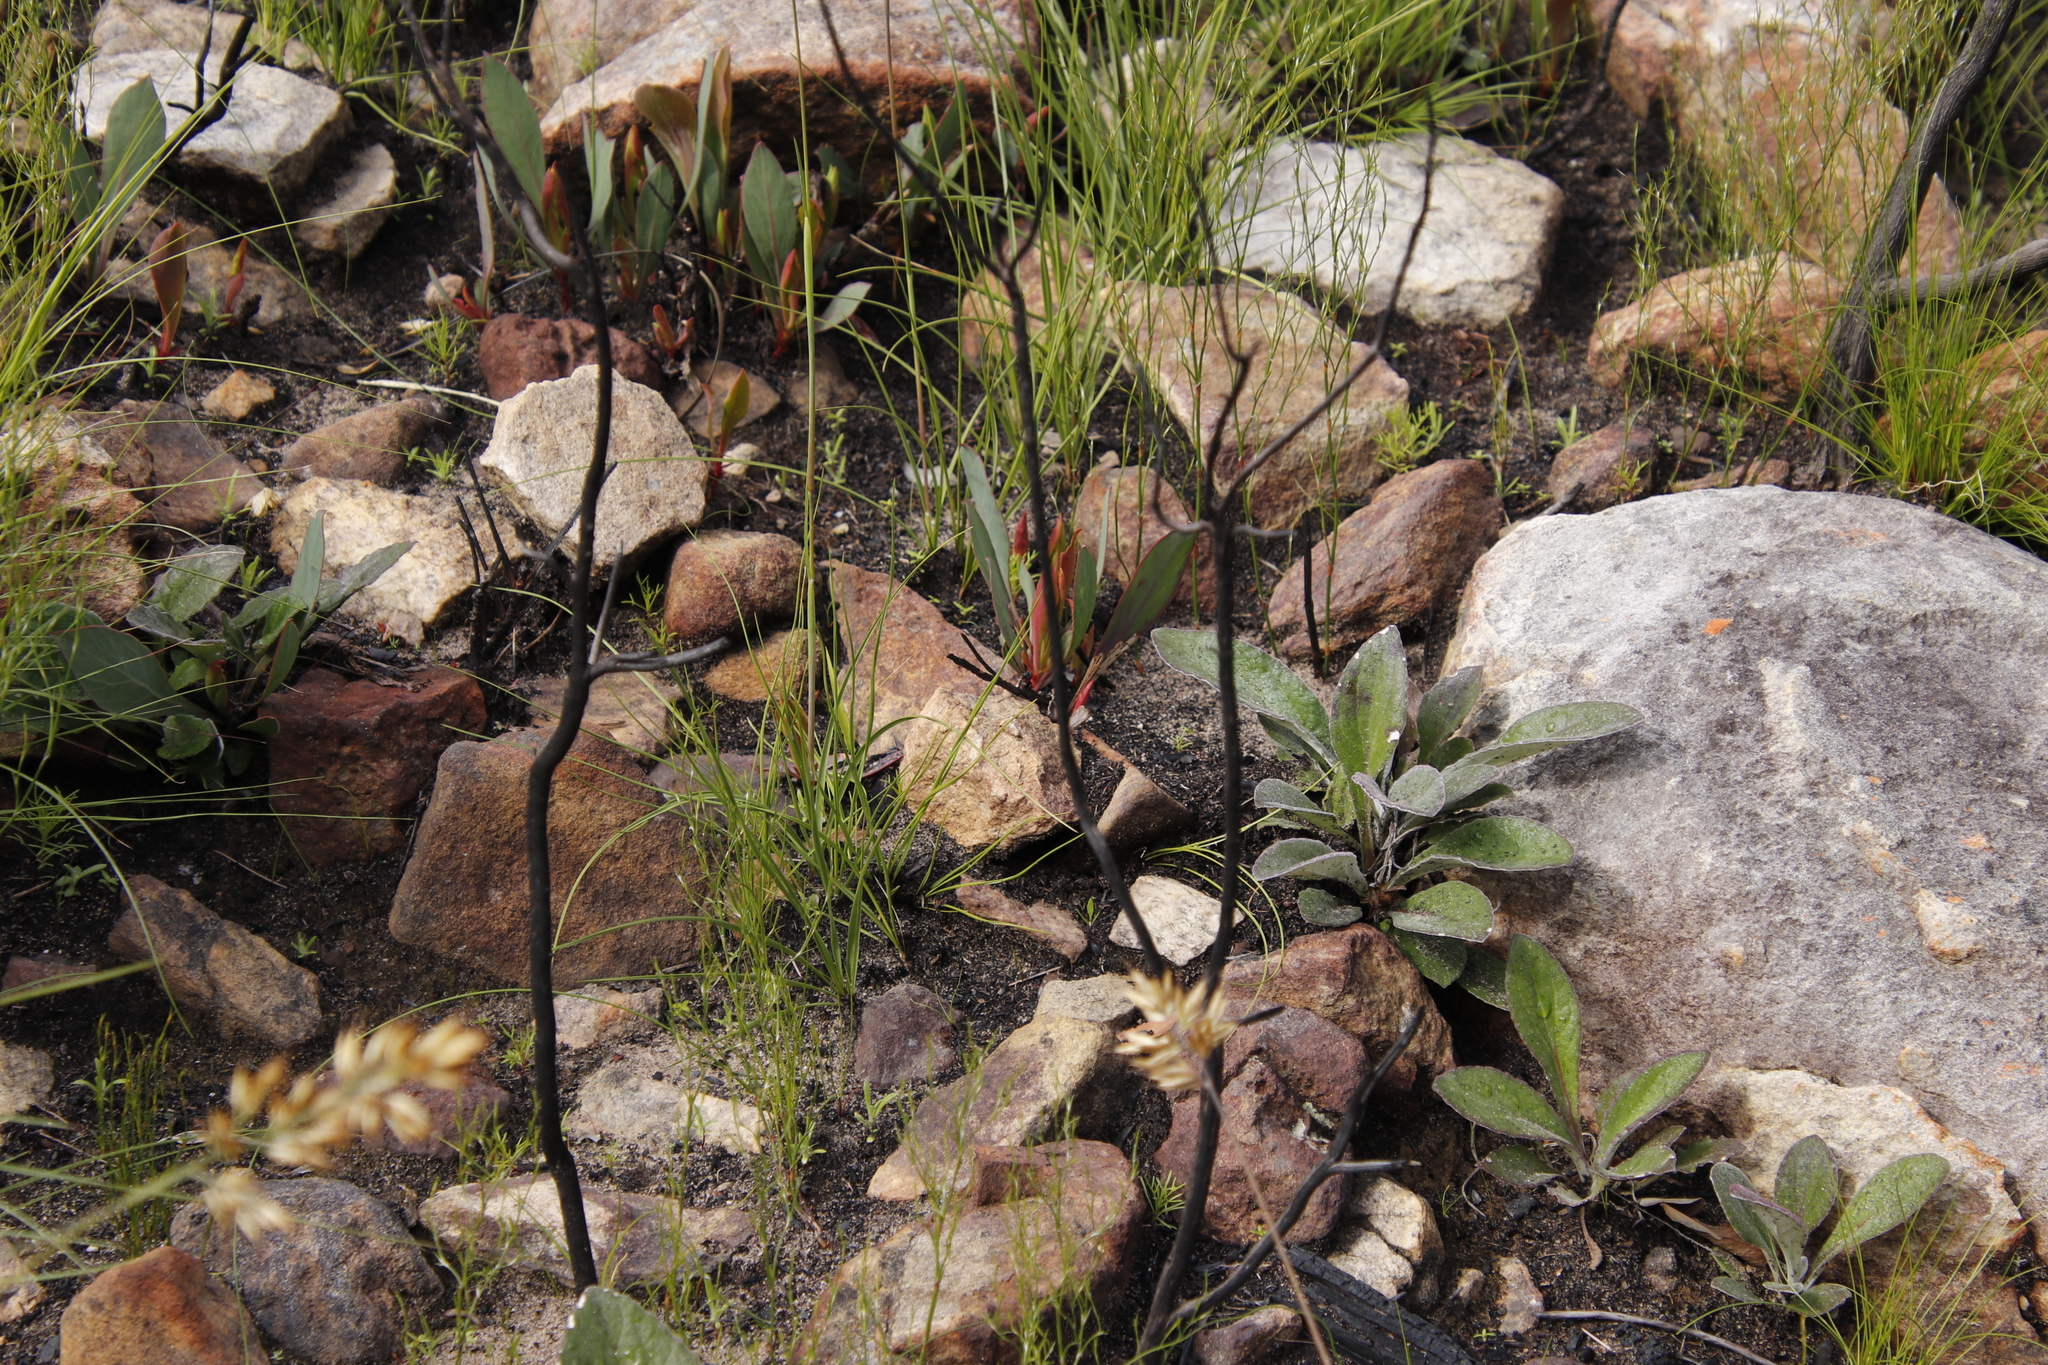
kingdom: Plantae
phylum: Tracheophyta
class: Magnoliopsida
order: Asterales
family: Asteraceae
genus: Osteospermum
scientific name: Osteospermum junceum
